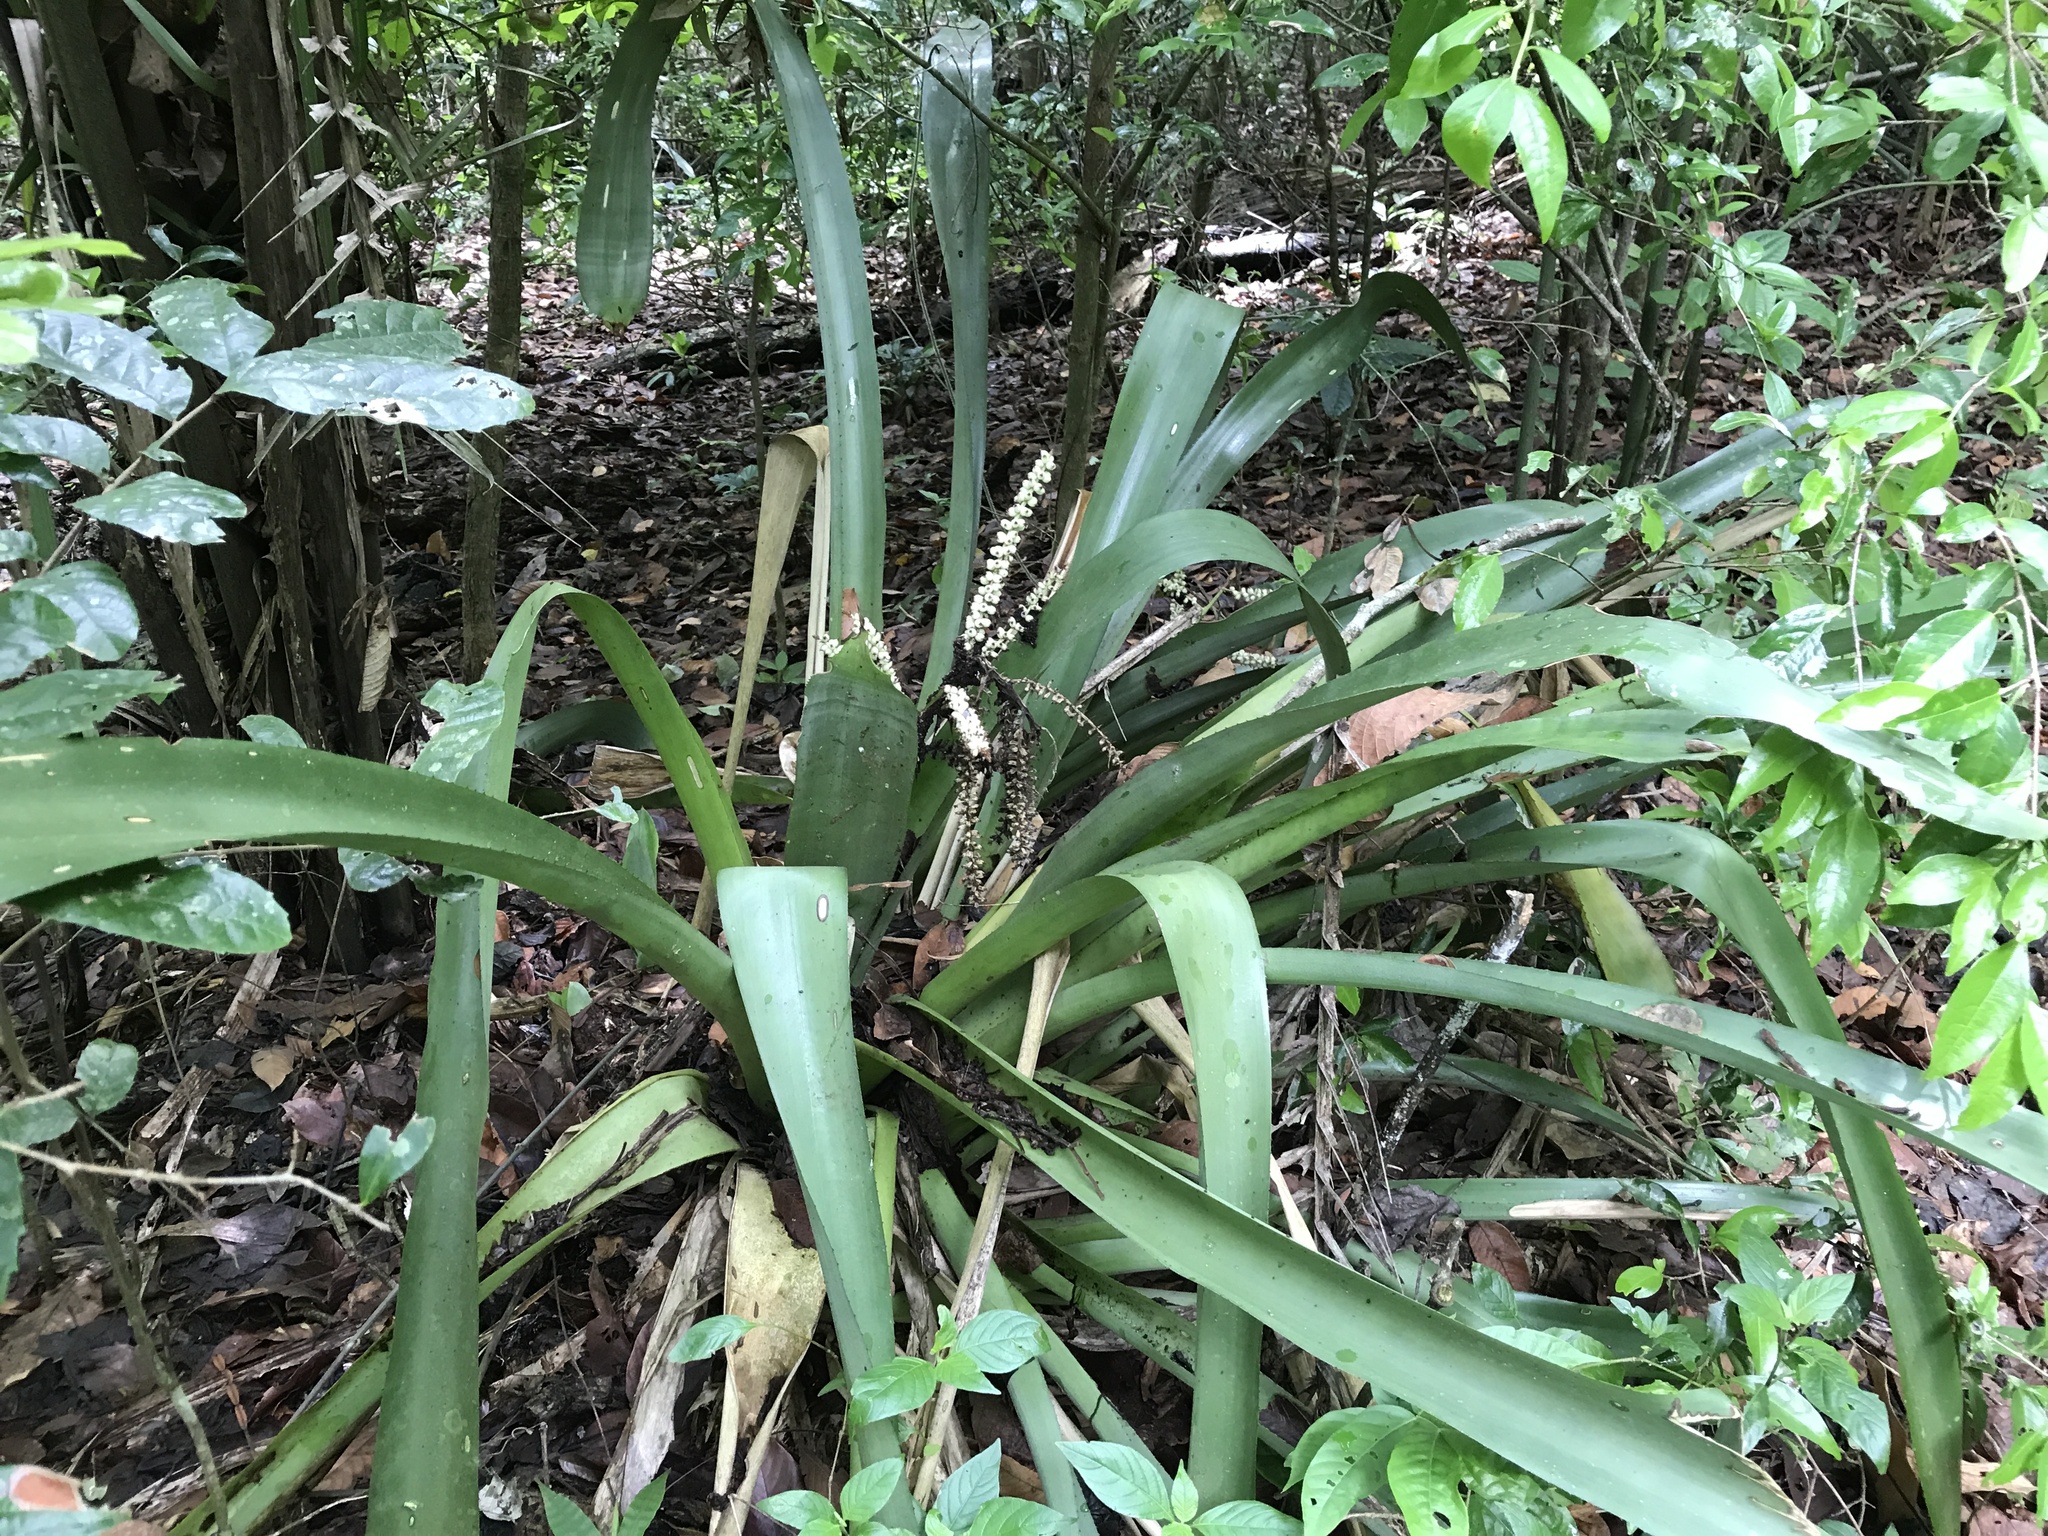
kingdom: Plantae
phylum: Tracheophyta
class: Liliopsida
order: Poales
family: Bromeliaceae
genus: Wittmackia
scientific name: Wittmackia patentissima
